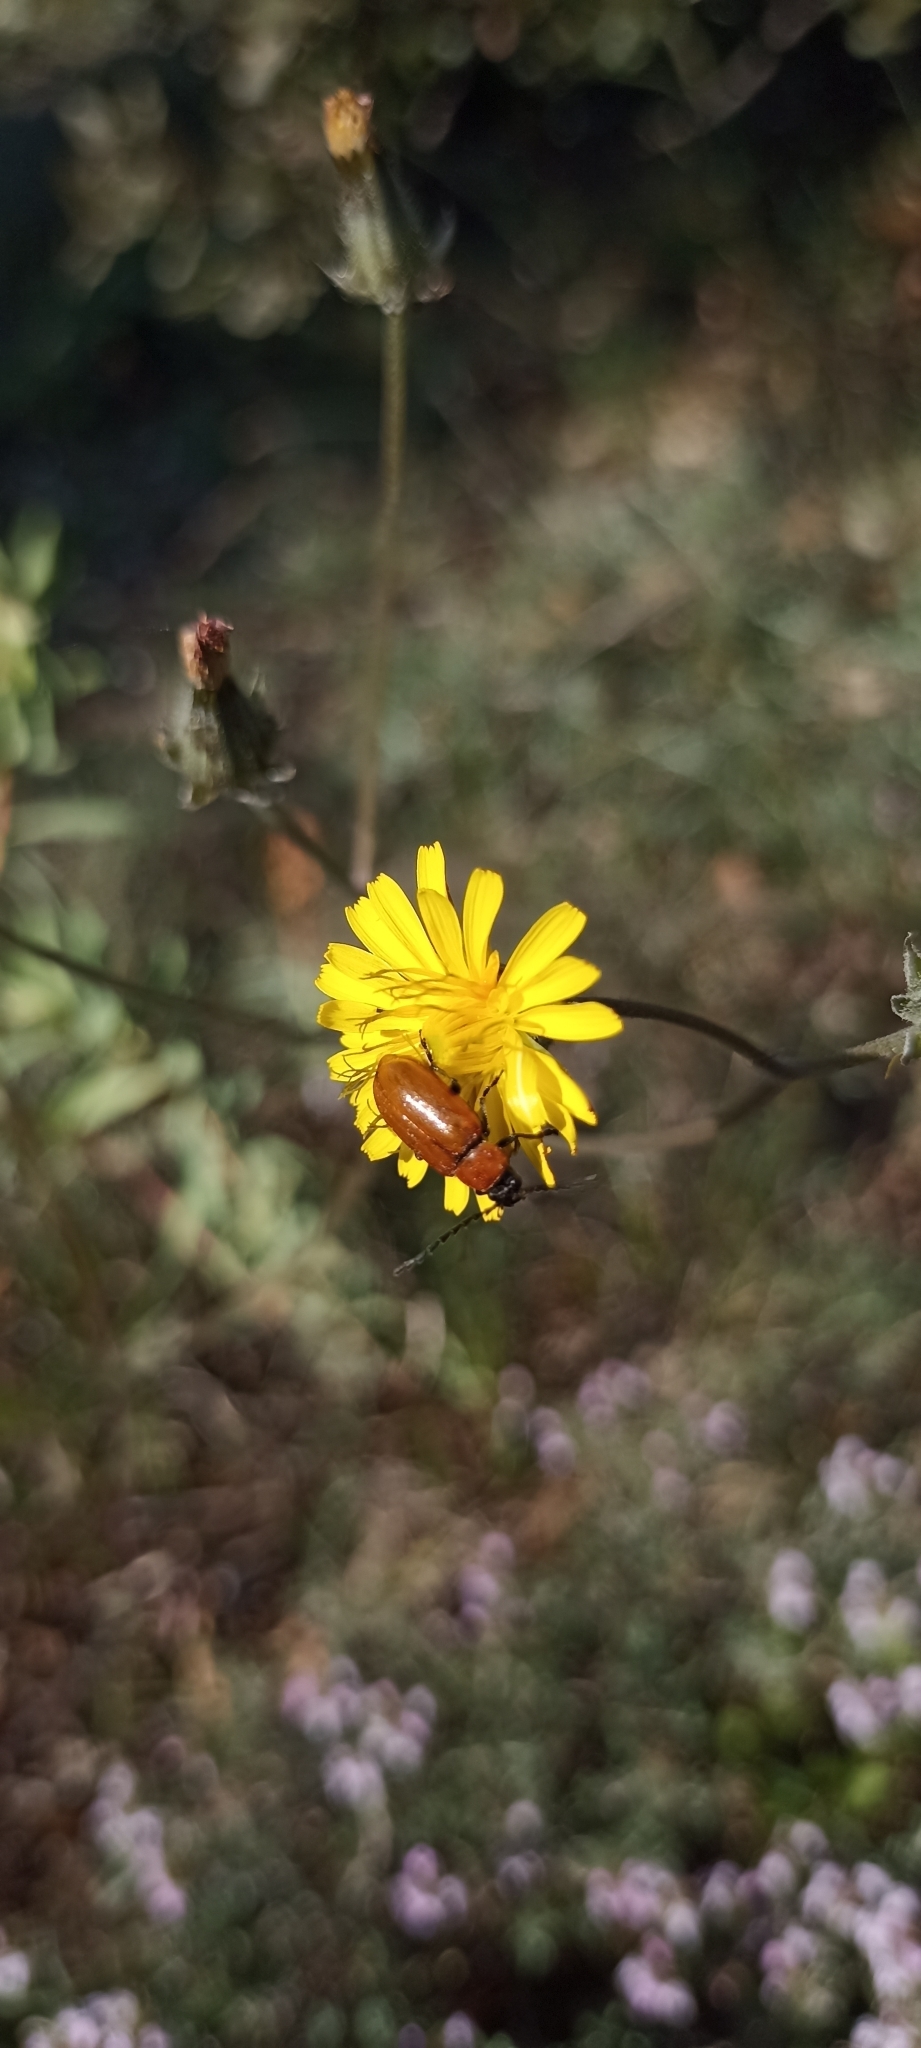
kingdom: Animalia
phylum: Arthropoda
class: Insecta
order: Coleoptera
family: Chrysomelidae
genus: Exosoma
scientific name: Exosoma lusitanicum
